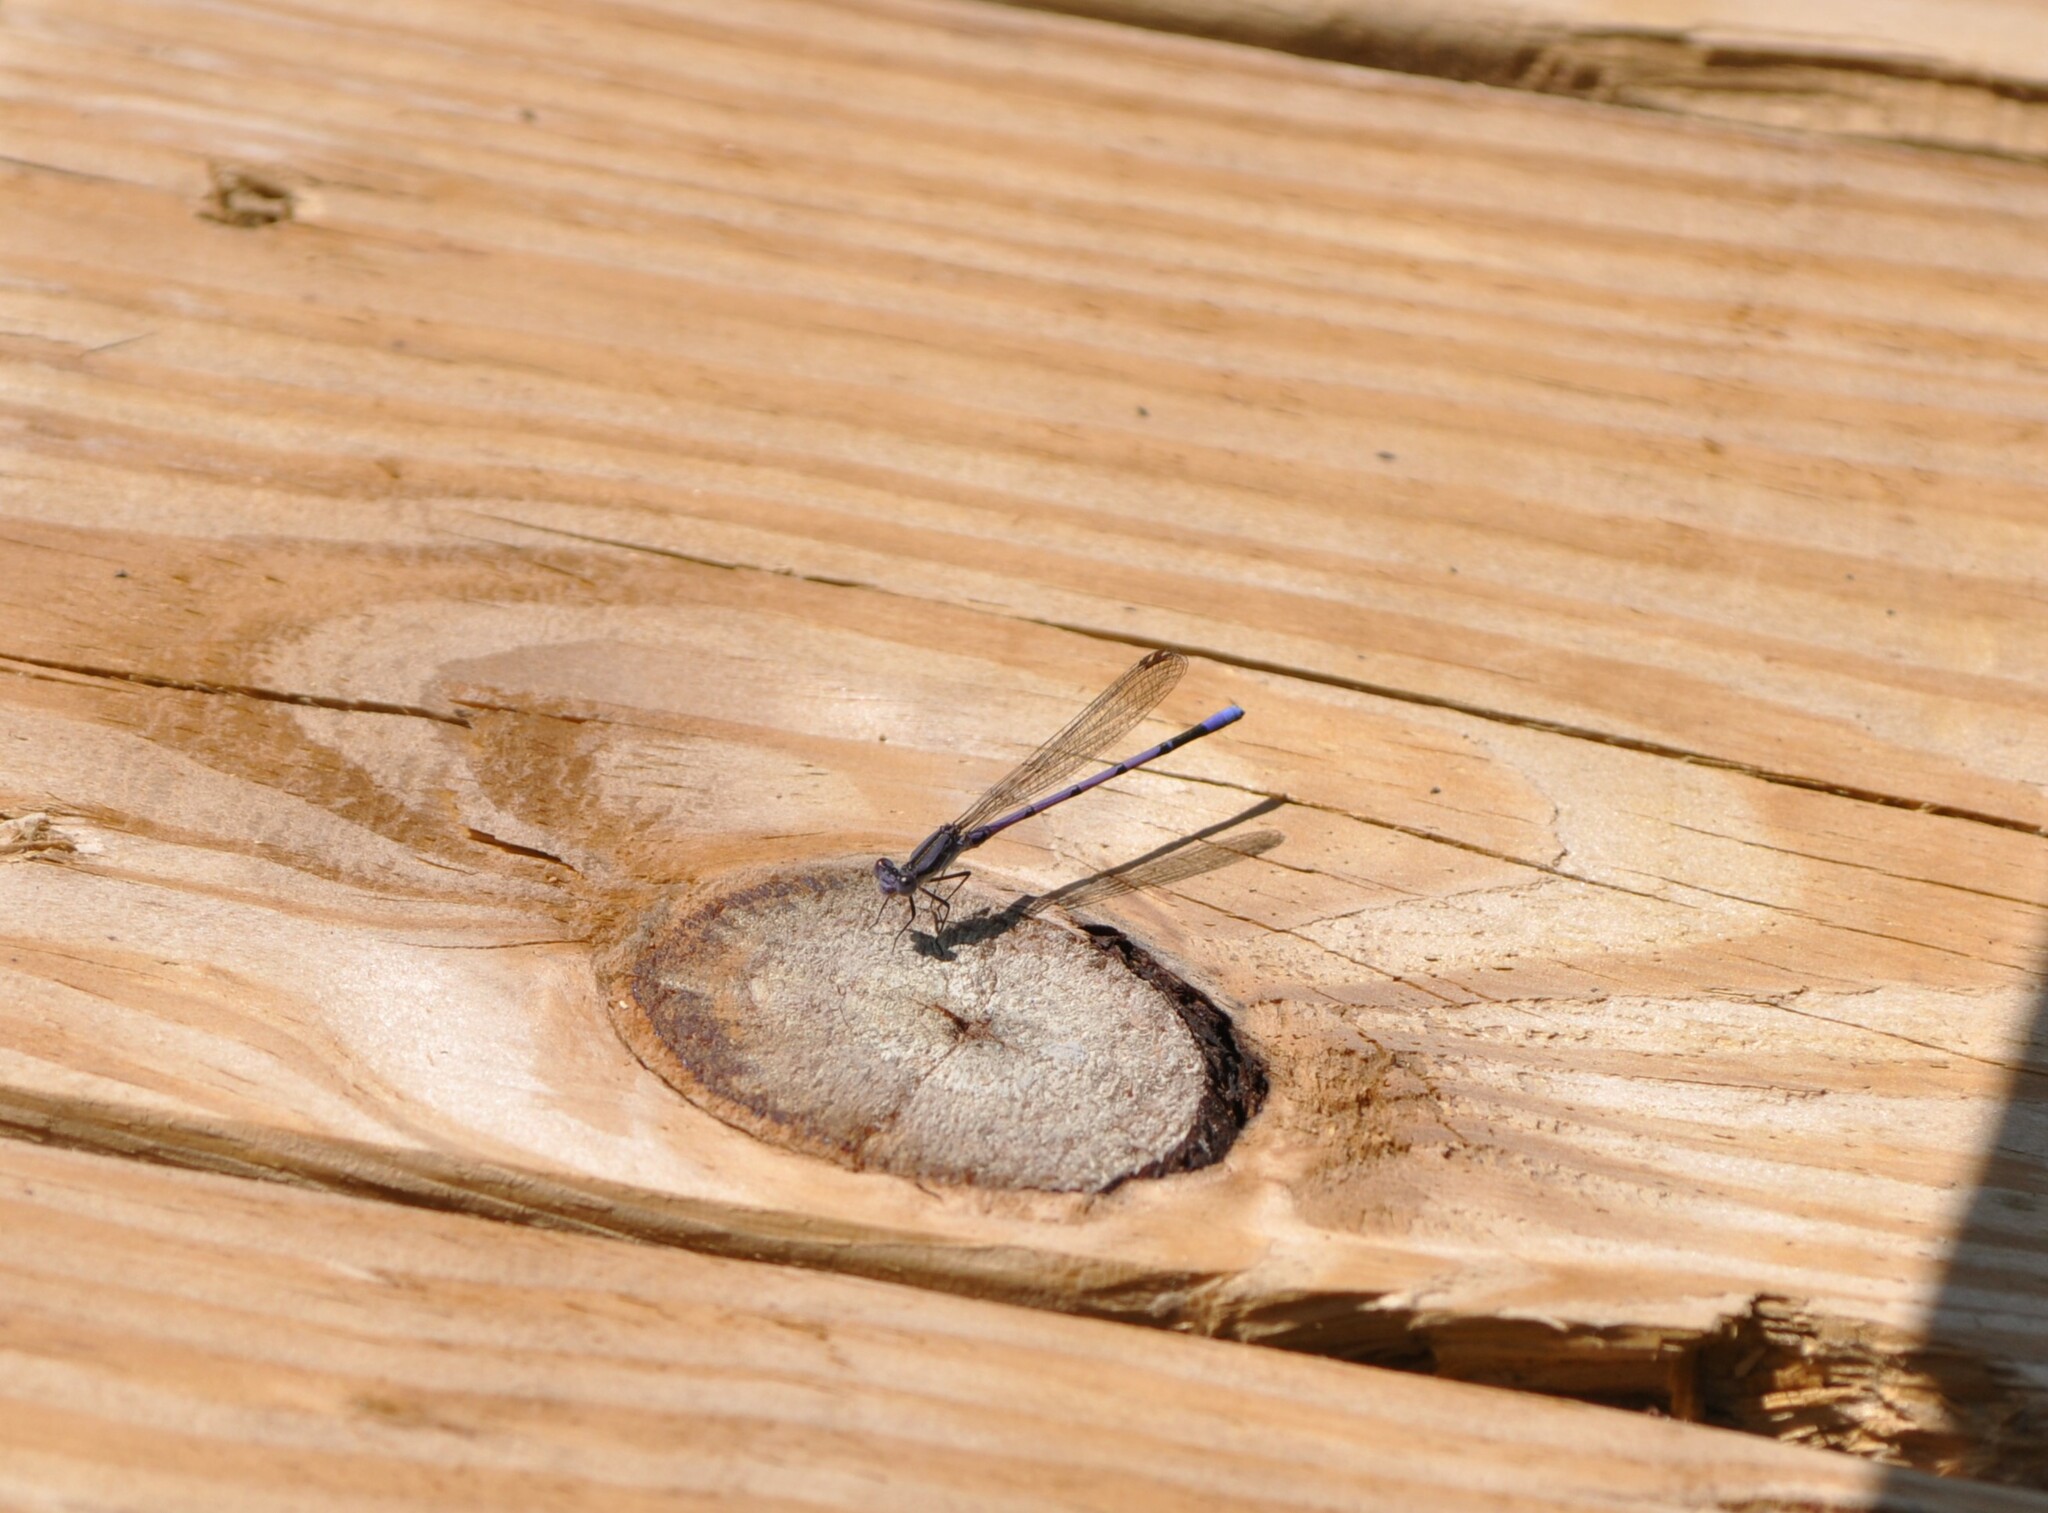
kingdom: Animalia
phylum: Arthropoda
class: Insecta
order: Odonata
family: Coenagrionidae
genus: Argia
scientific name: Argia fumipennis
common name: Variable dancer
